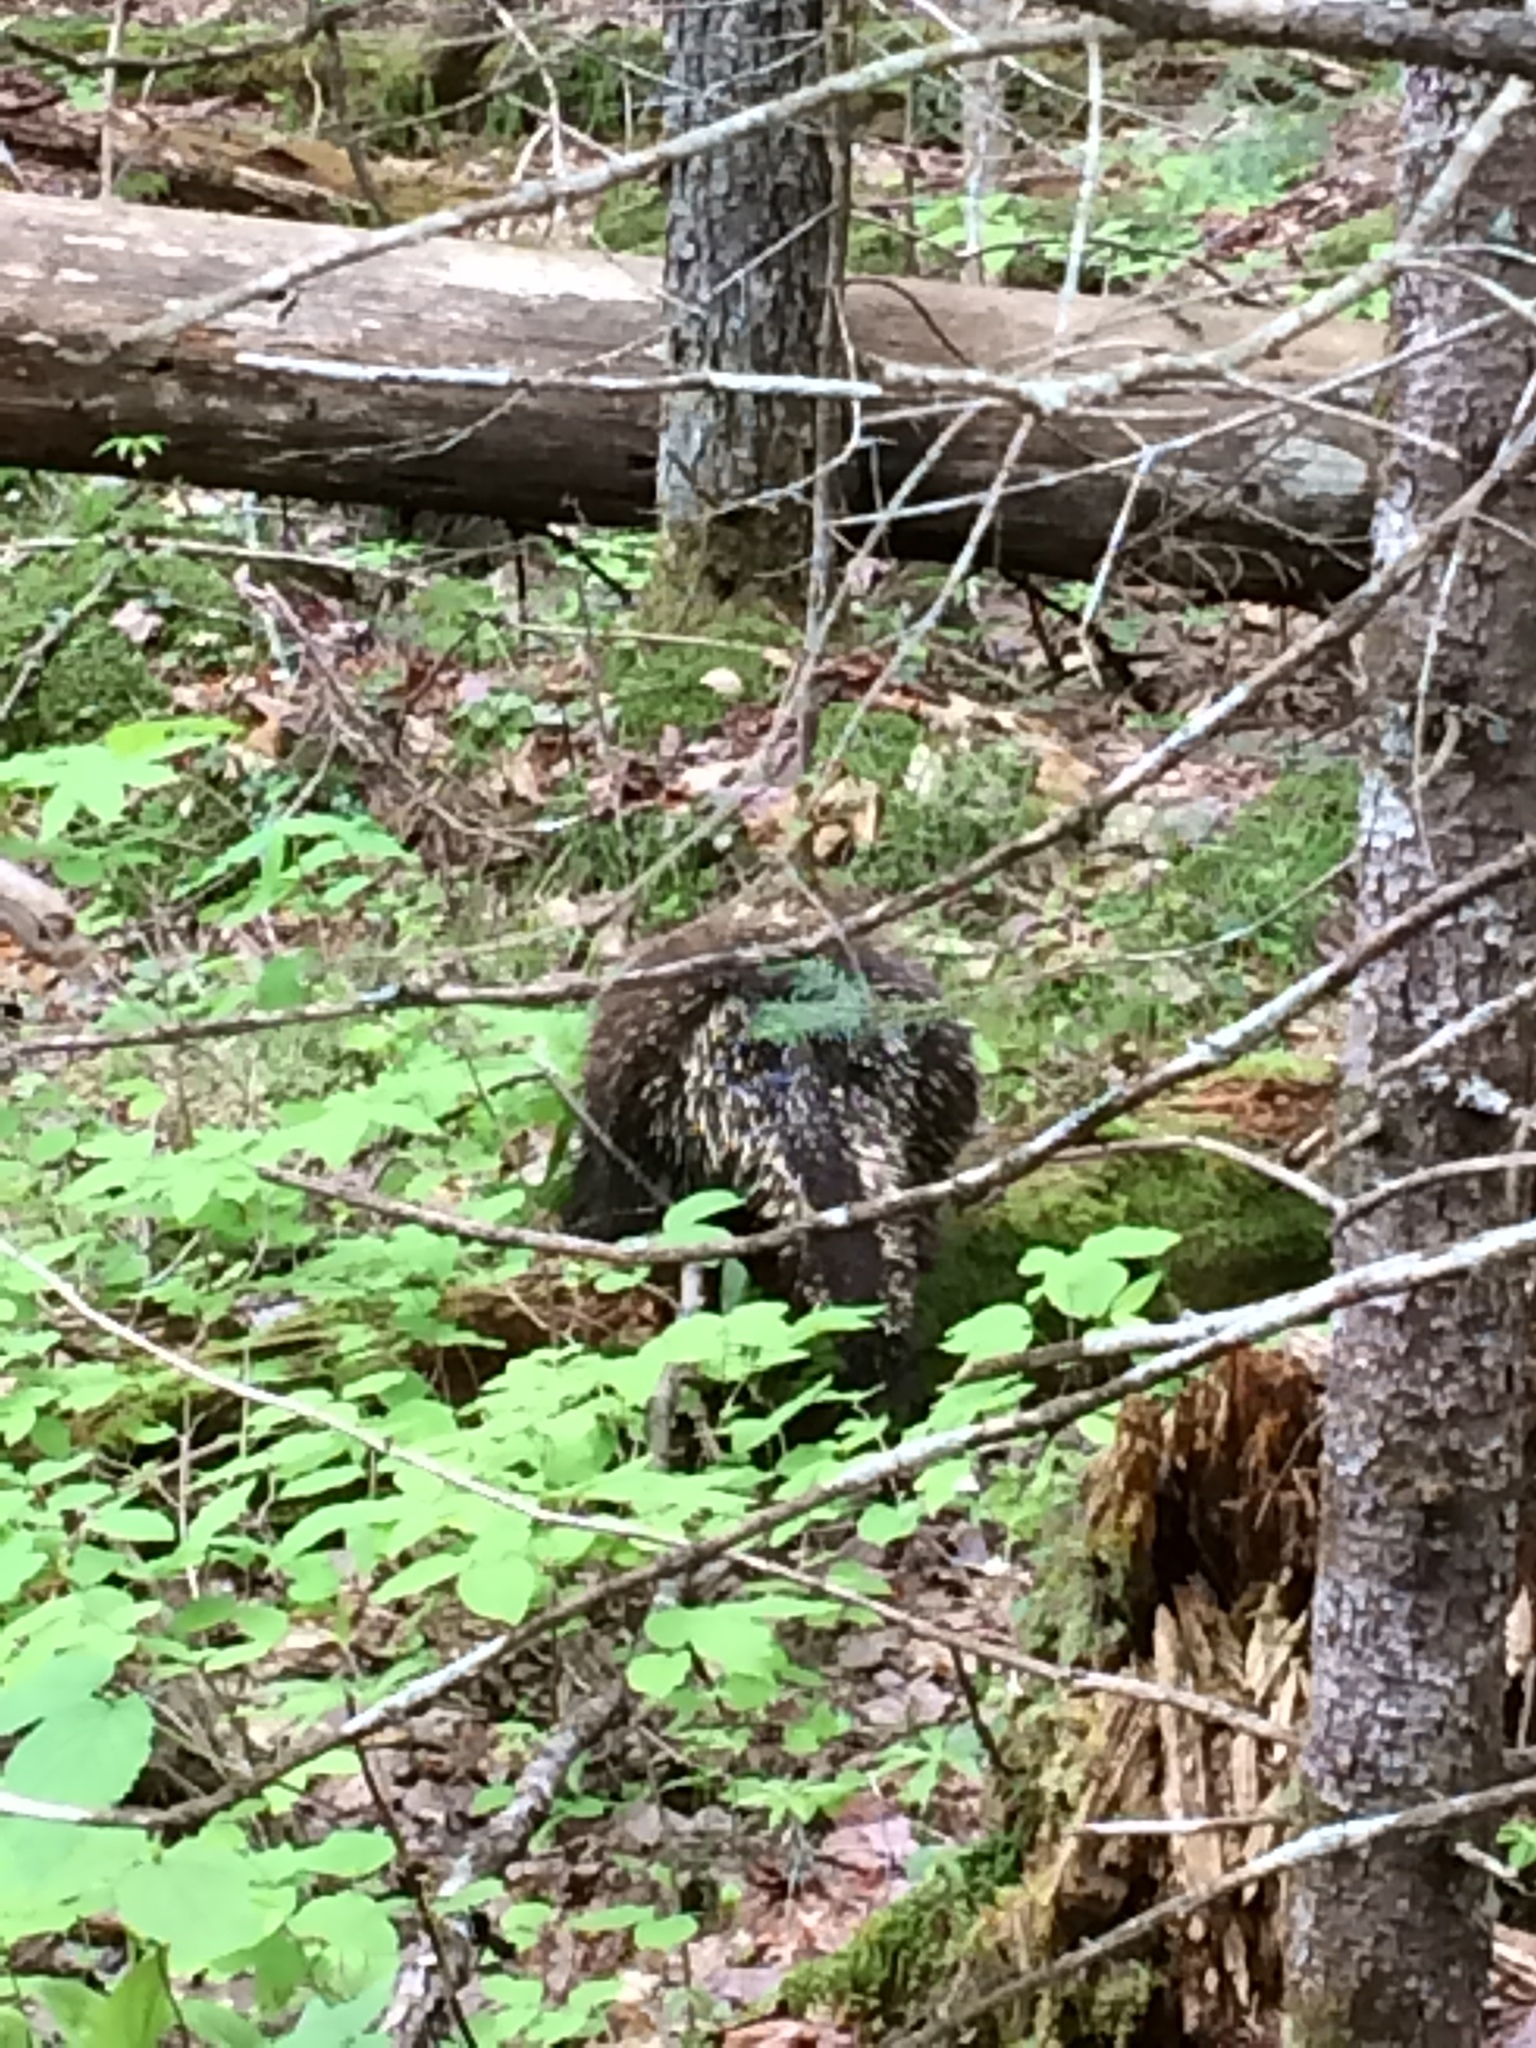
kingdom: Animalia
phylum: Chordata
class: Mammalia
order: Rodentia
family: Erethizontidae
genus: Erethizon
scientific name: Erethizon dorsatus
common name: North american porcupine
